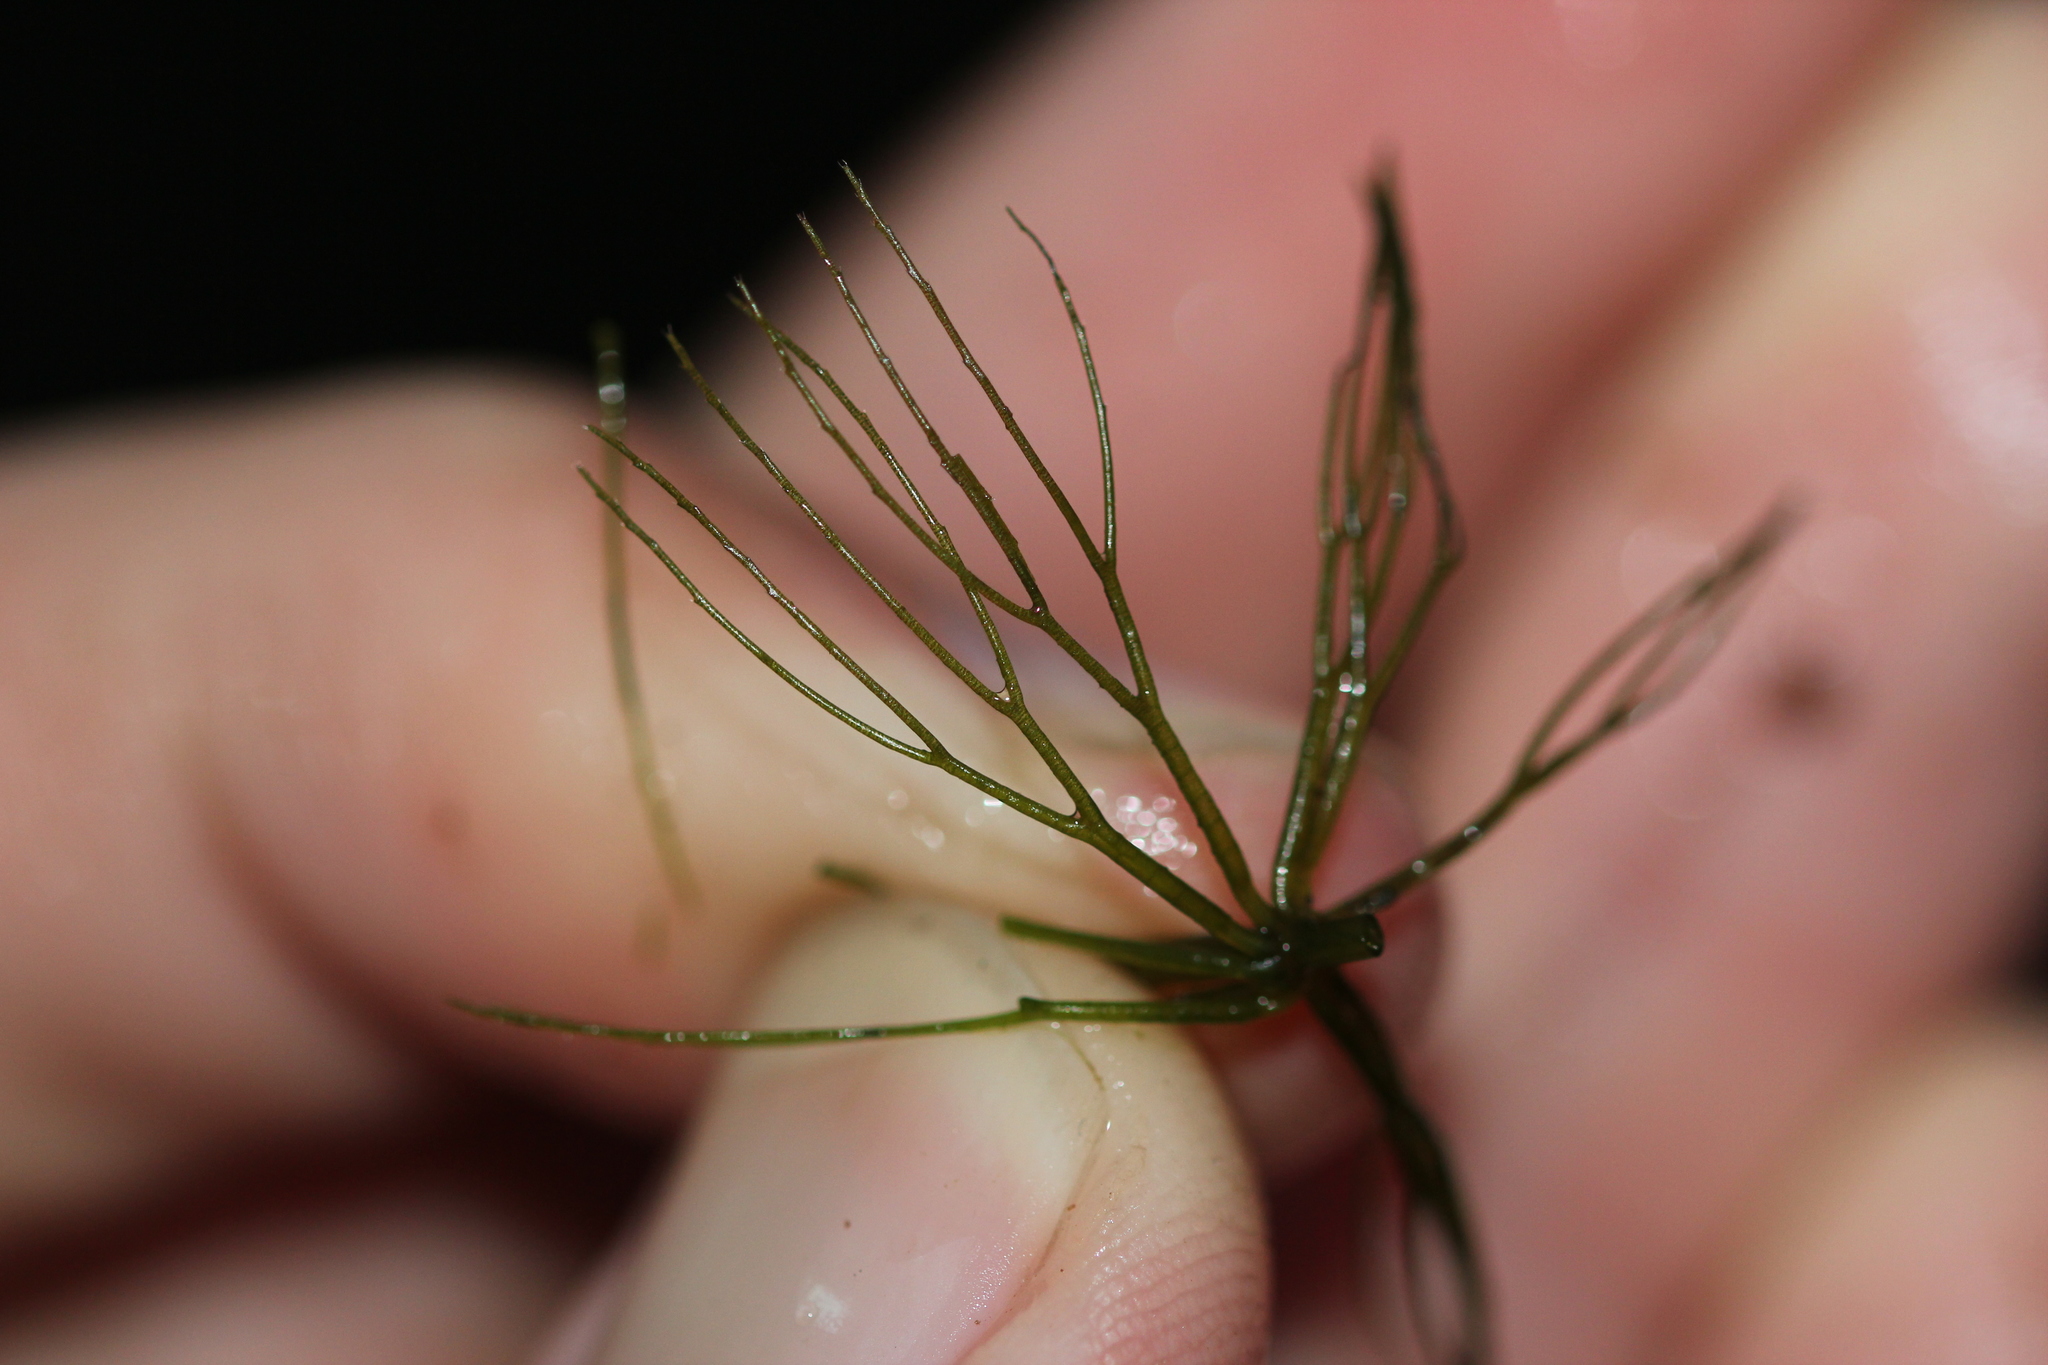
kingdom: Plantae
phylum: Tracheophyta
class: Magnoliopsida
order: Ceratophyllales
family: Ceratophyllaceae
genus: Ceratophyllum
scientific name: Ceratophyllum echinatum
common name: Prickly coontail
